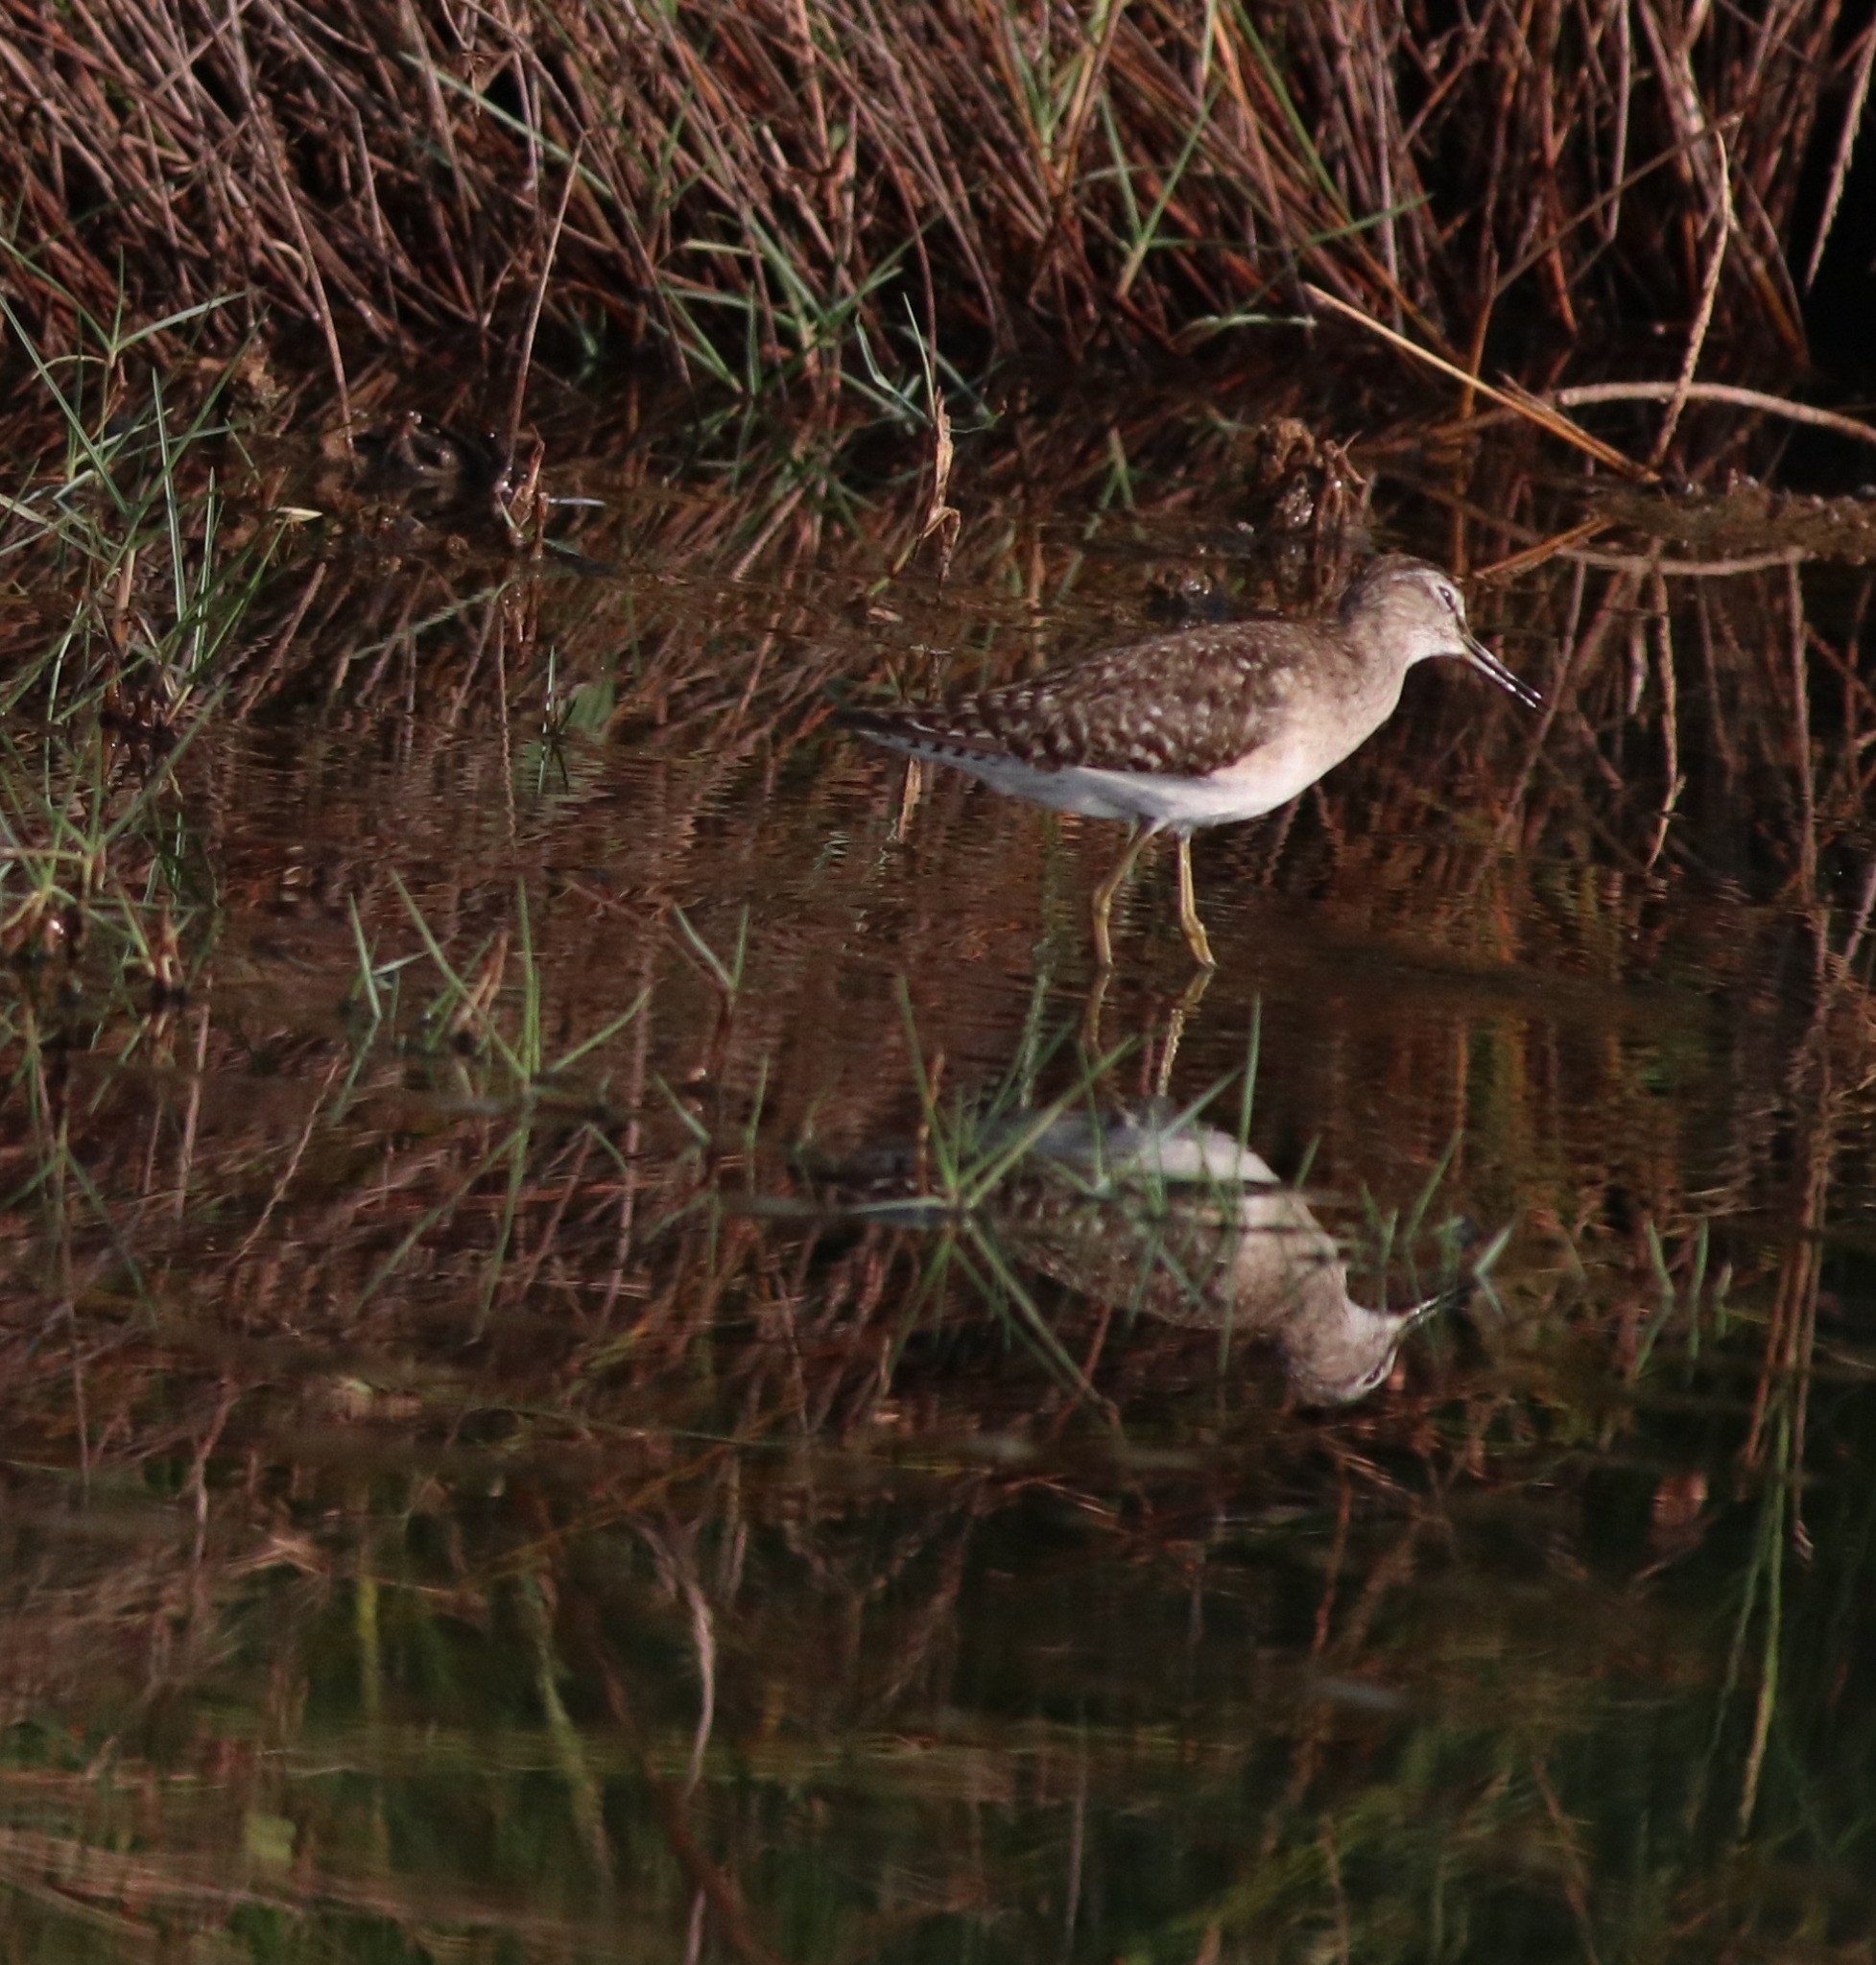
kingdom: Animalia
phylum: Chordata
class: Aves
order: Charadriiformes
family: Scolopacidae
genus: Tringa
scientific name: Tringa glareola
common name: Wood sandpiper
